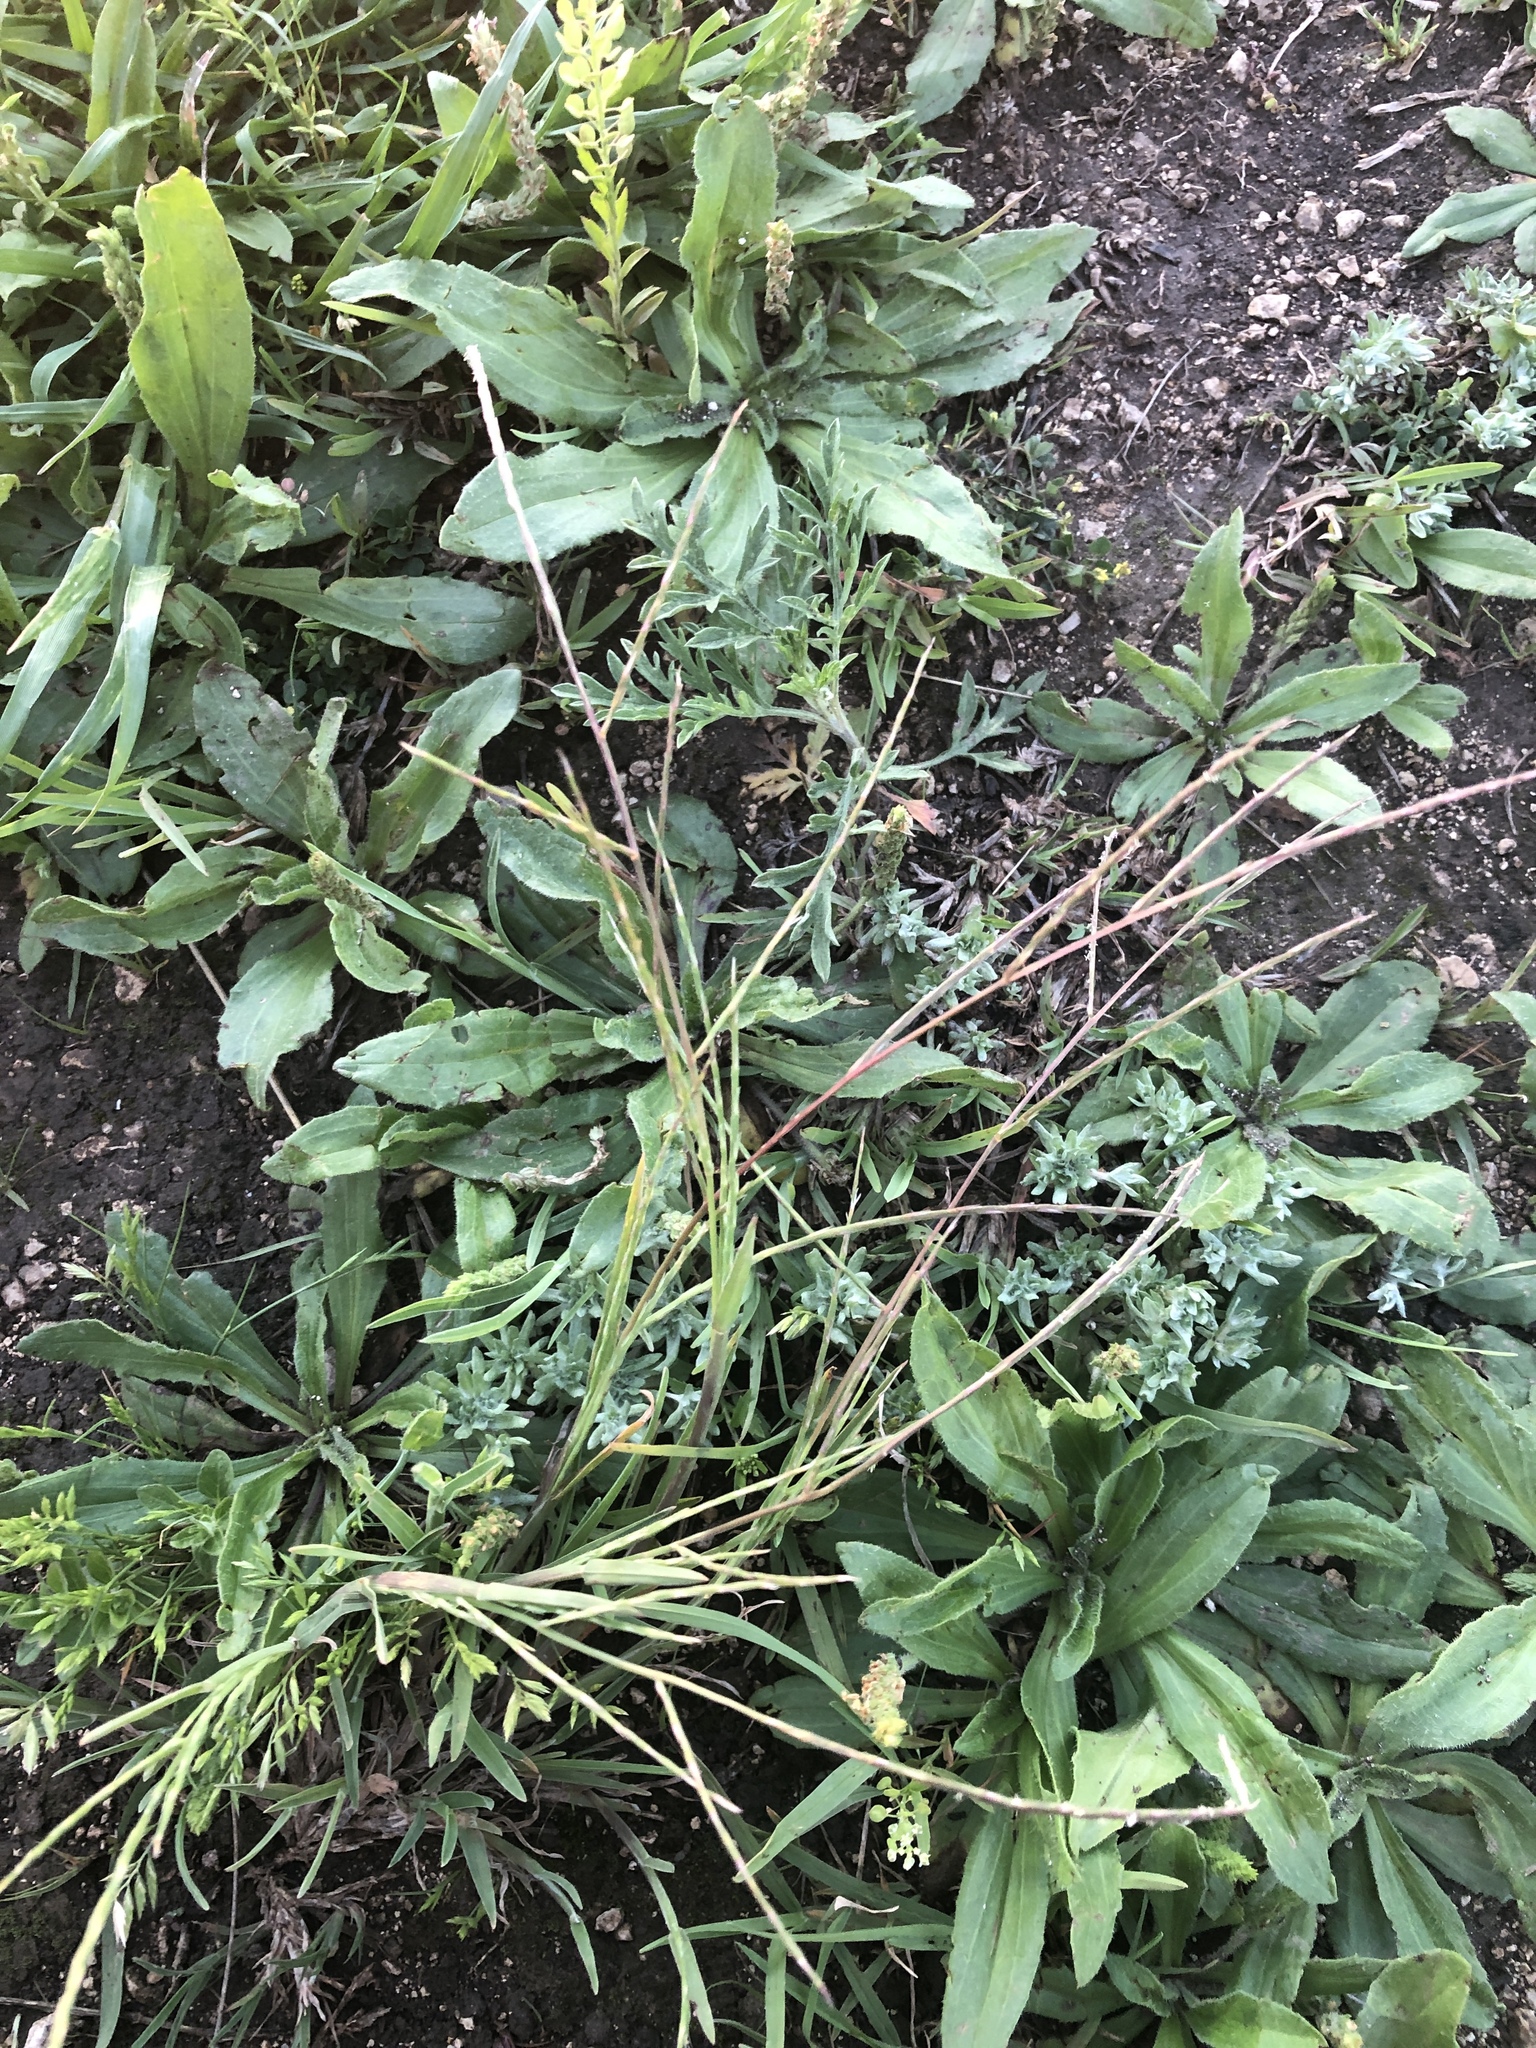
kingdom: Plantae
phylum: Tracheophyta
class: Liliopsida
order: Poales
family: Poaceae
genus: Muhlenbergia
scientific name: Muhlenbergia paniculata
